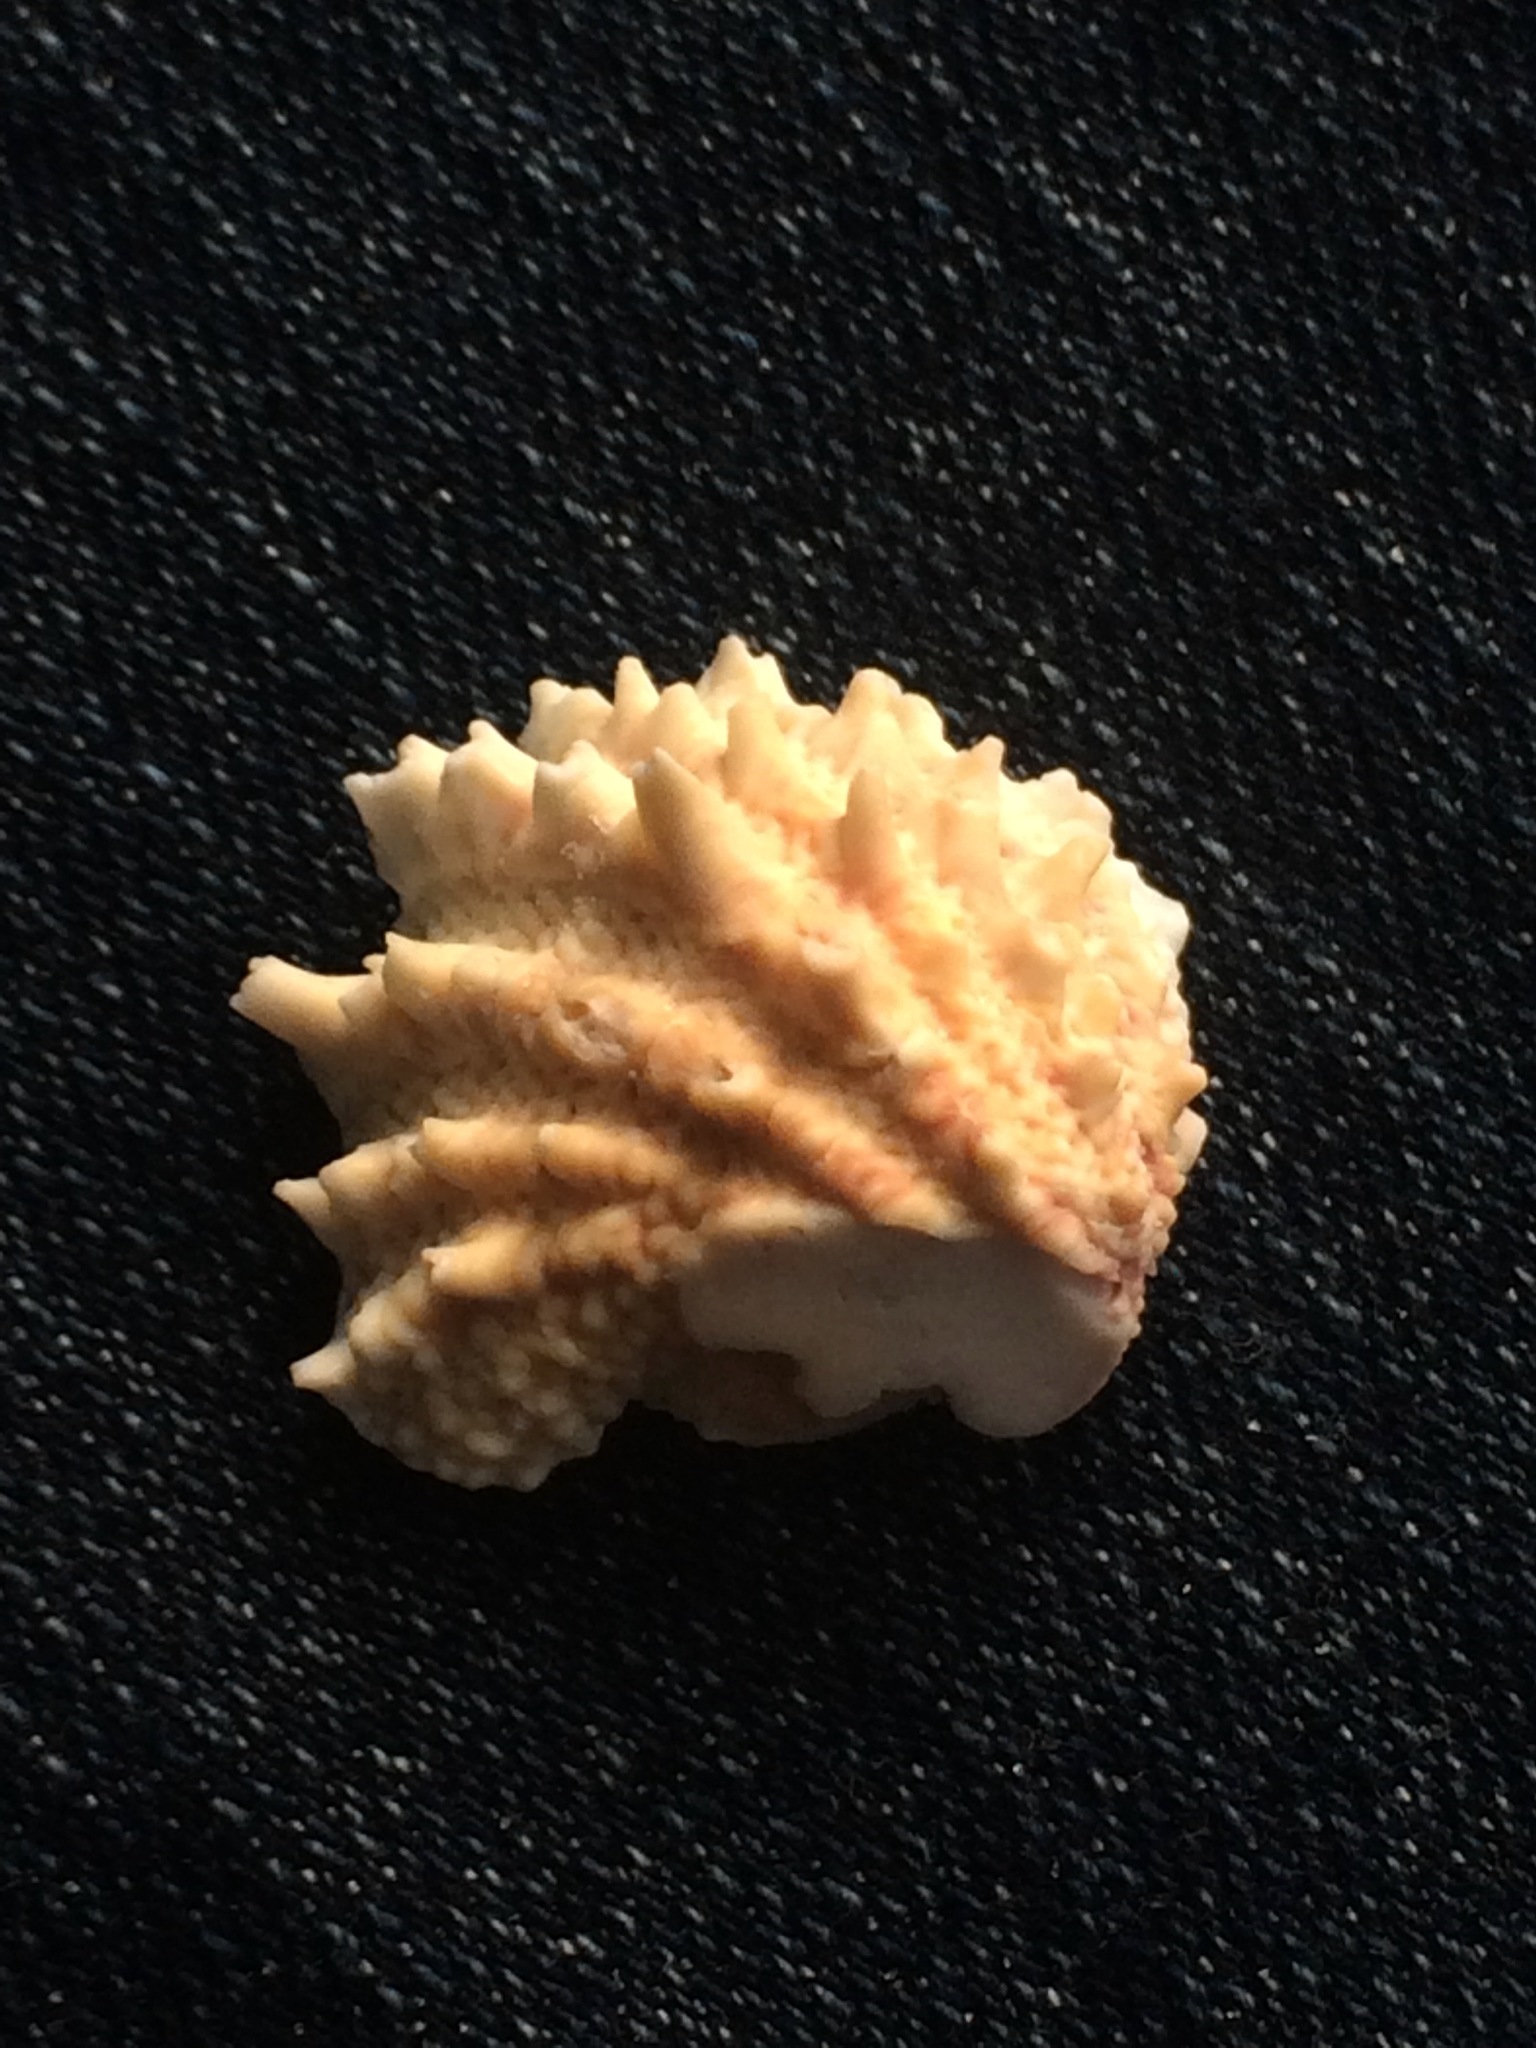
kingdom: Animalia
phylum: Mollusca
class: Bivalvia
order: Venerida
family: Chamidae
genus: Arcinella
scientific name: Arcinella cornuta
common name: Florida spiny jewel box
